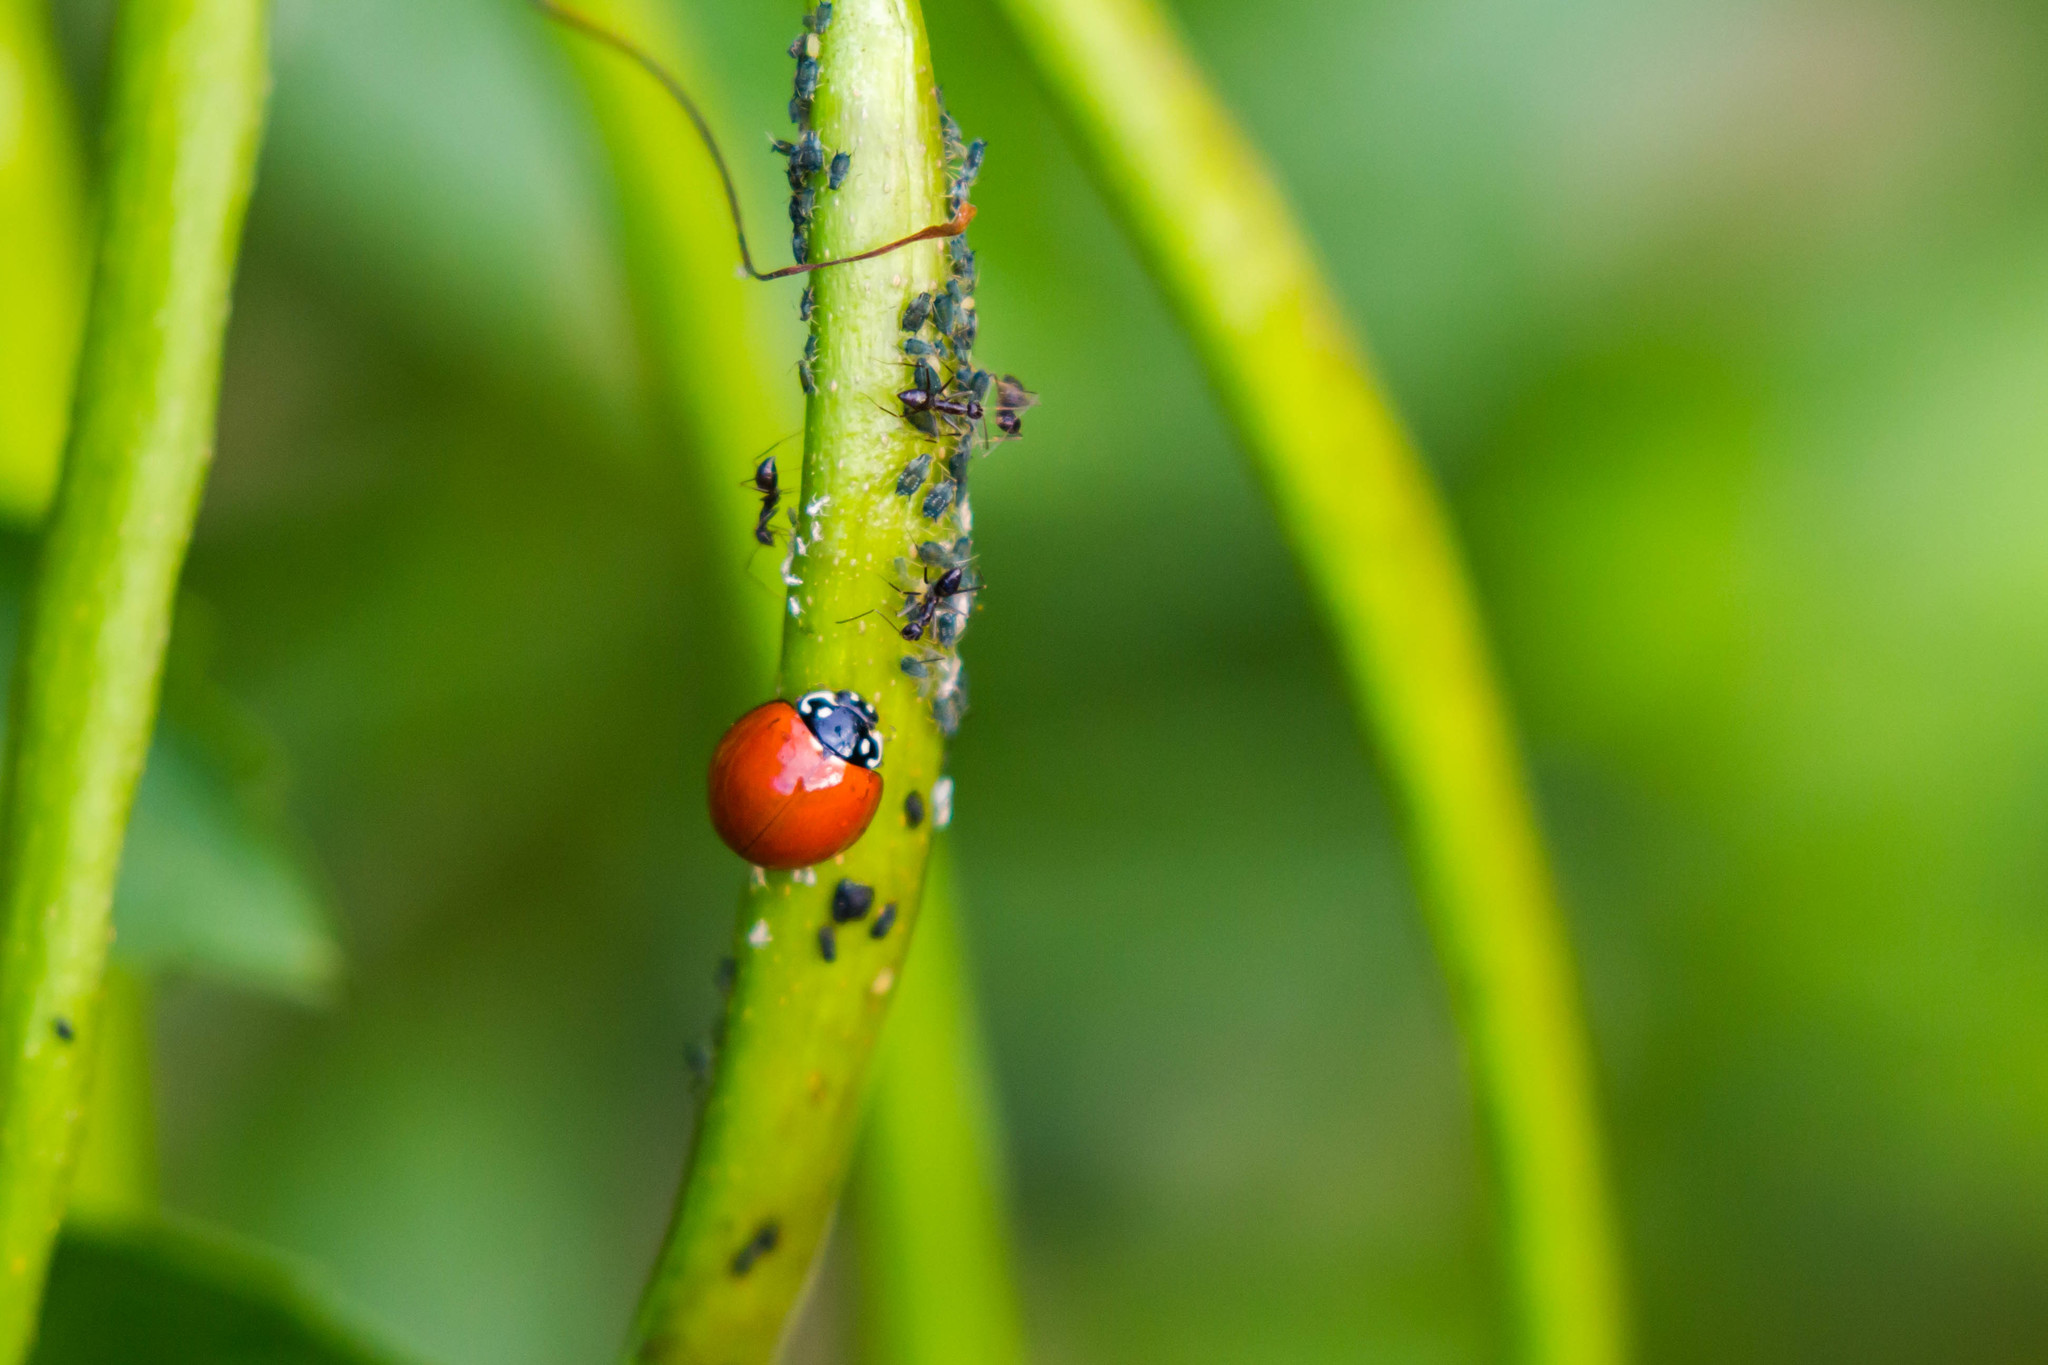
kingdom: Animalia
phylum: Arthropoda
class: Insecta
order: Coleoptera
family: Coccinellidae
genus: Cycloneda
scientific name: Cycloneda sanguinea
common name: Ladybird beetle
